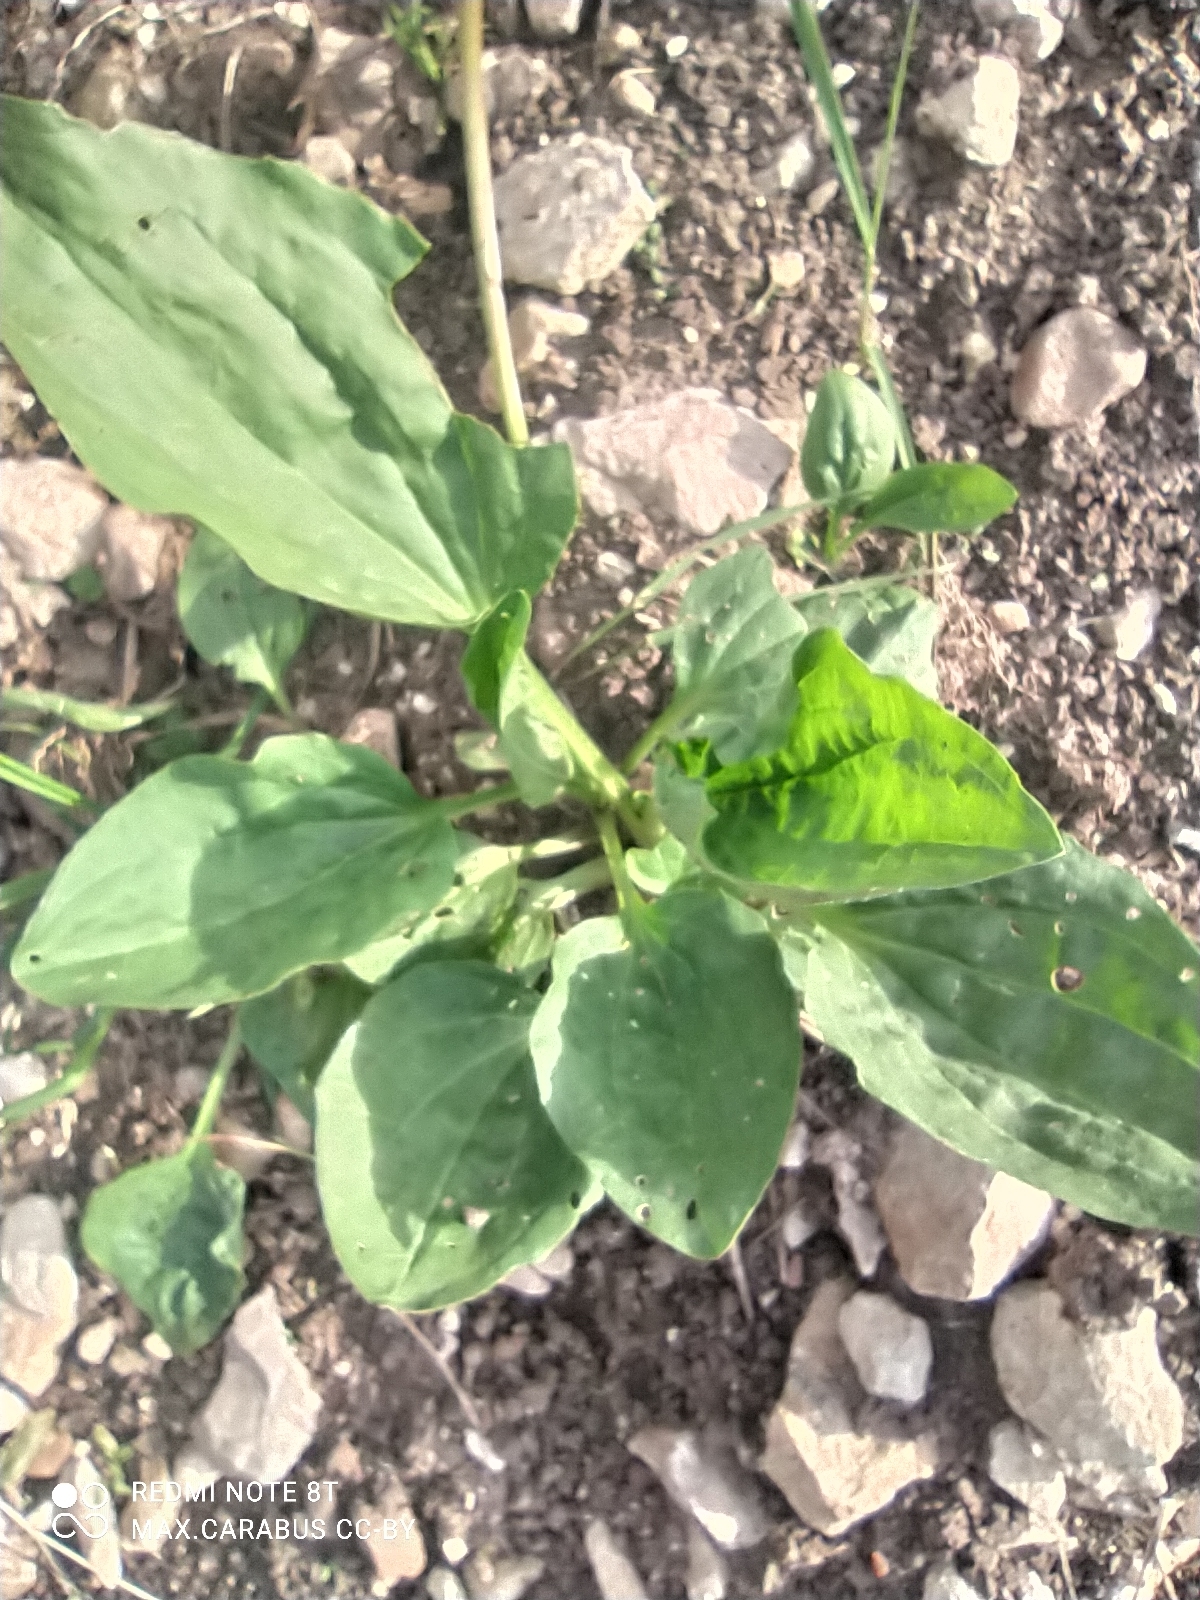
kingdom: Plantae
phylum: Tracheophyta
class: Magnoliopsida
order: Lamiales
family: Plantaginaceae
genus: Plantago
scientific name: Plantago major
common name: Common plantain
